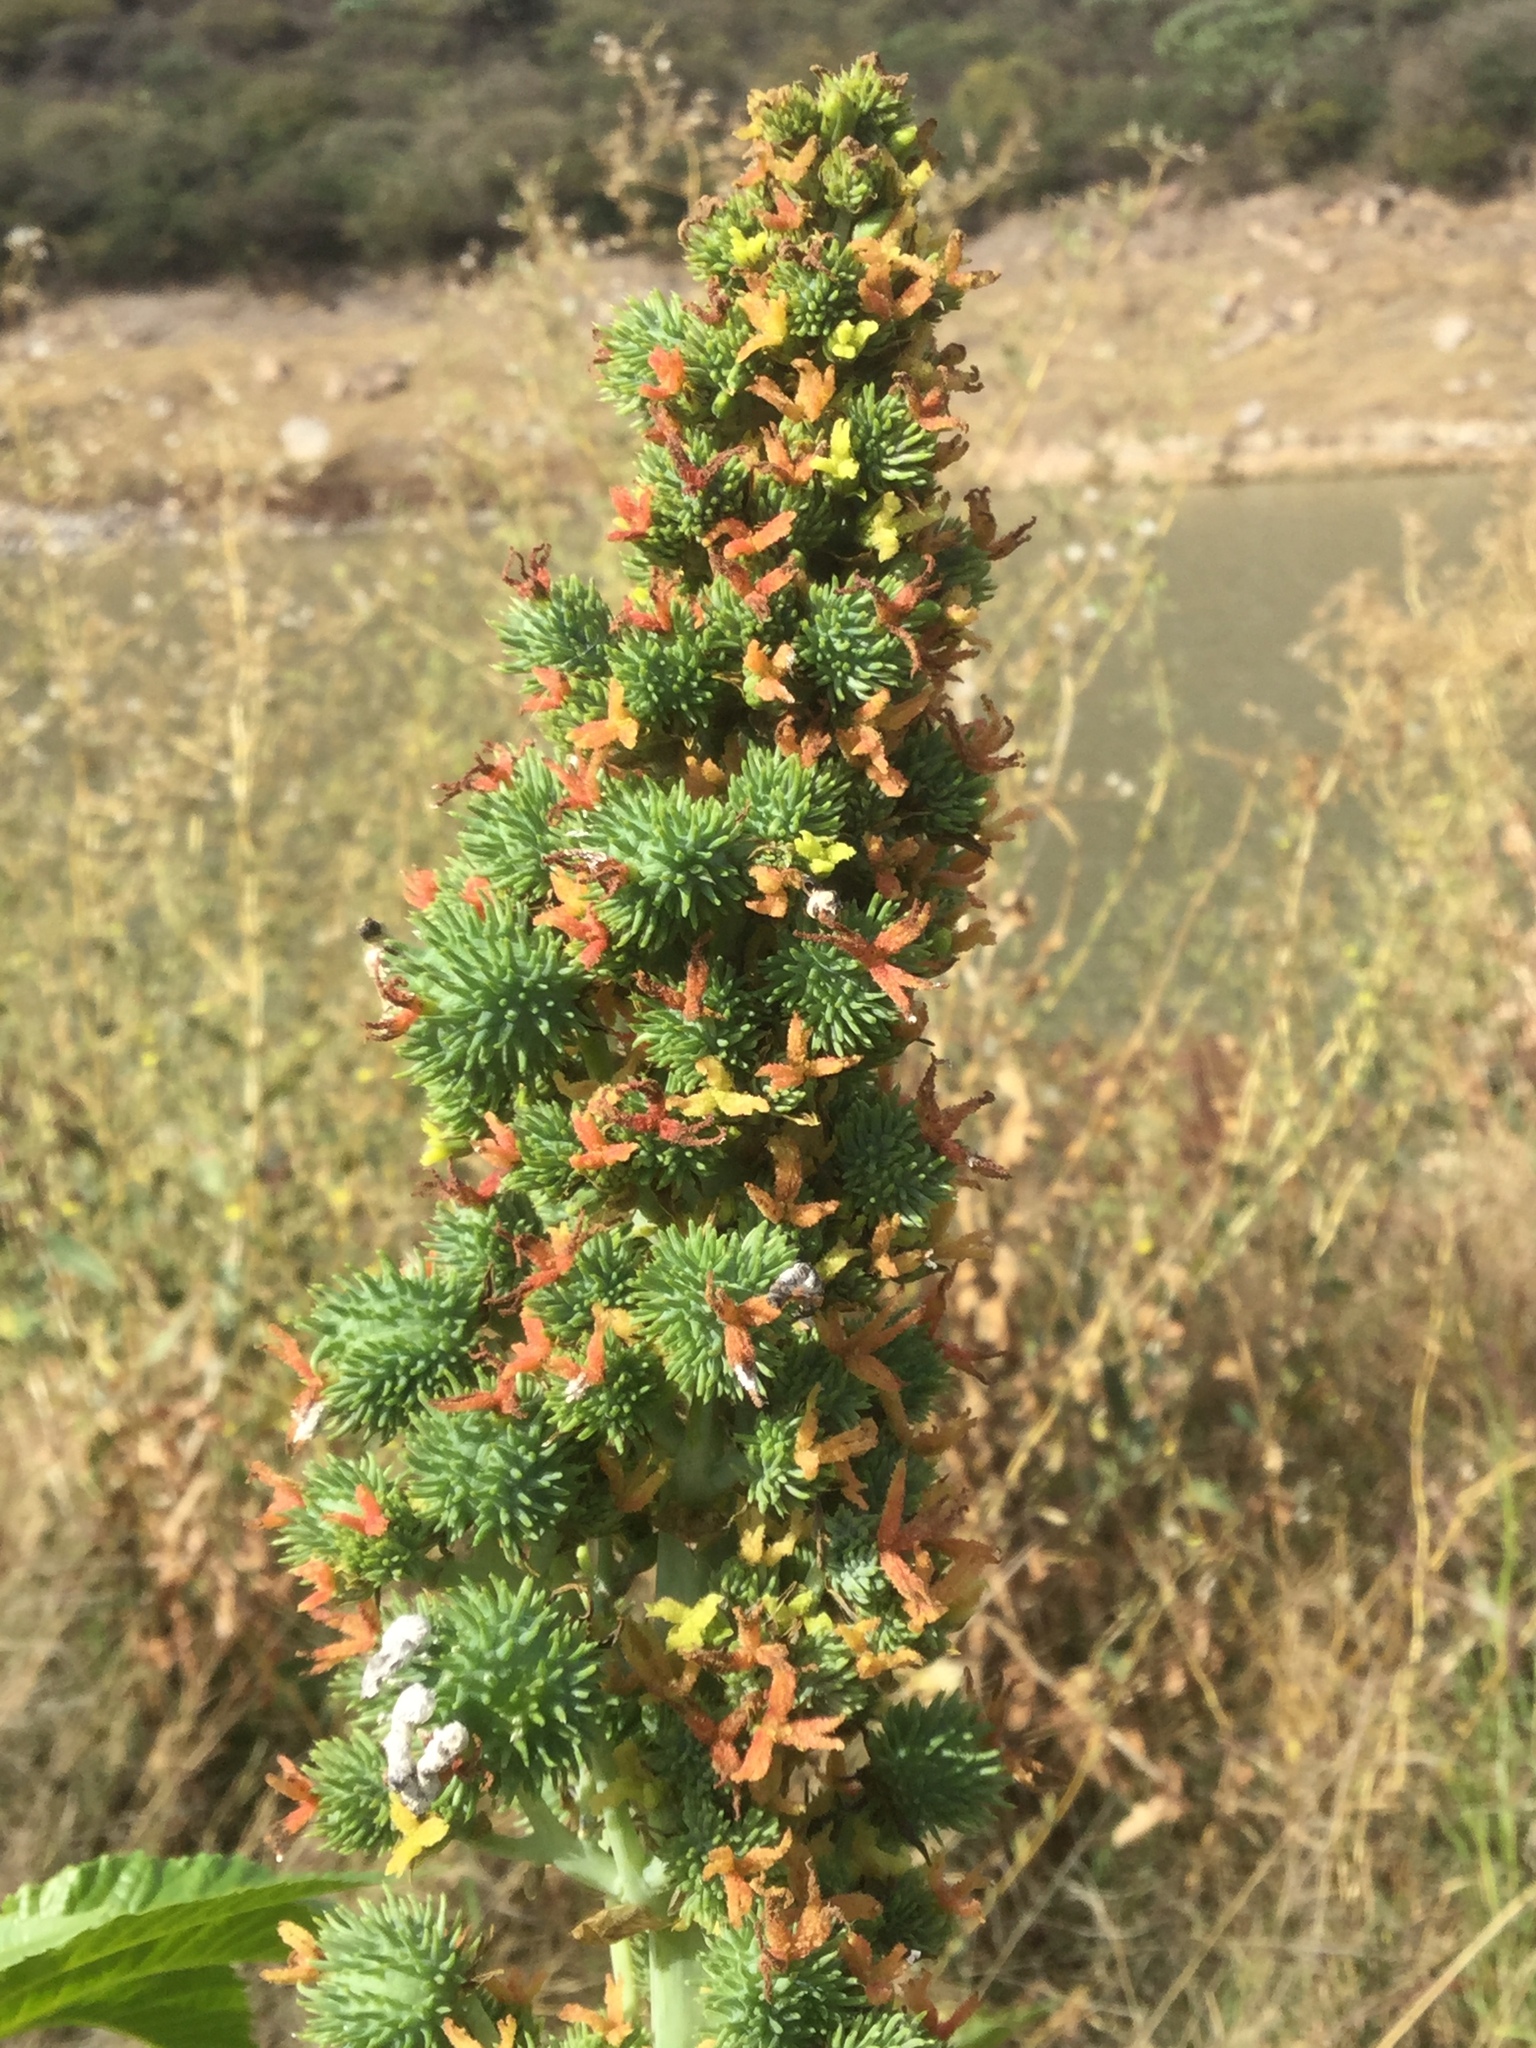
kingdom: Plantae
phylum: Tracheophyta
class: Magnoliopsida
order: Malpighiales
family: Euphorbiaceae
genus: Ricinus
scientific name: Ricinus communis
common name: Castor-oil-plant
